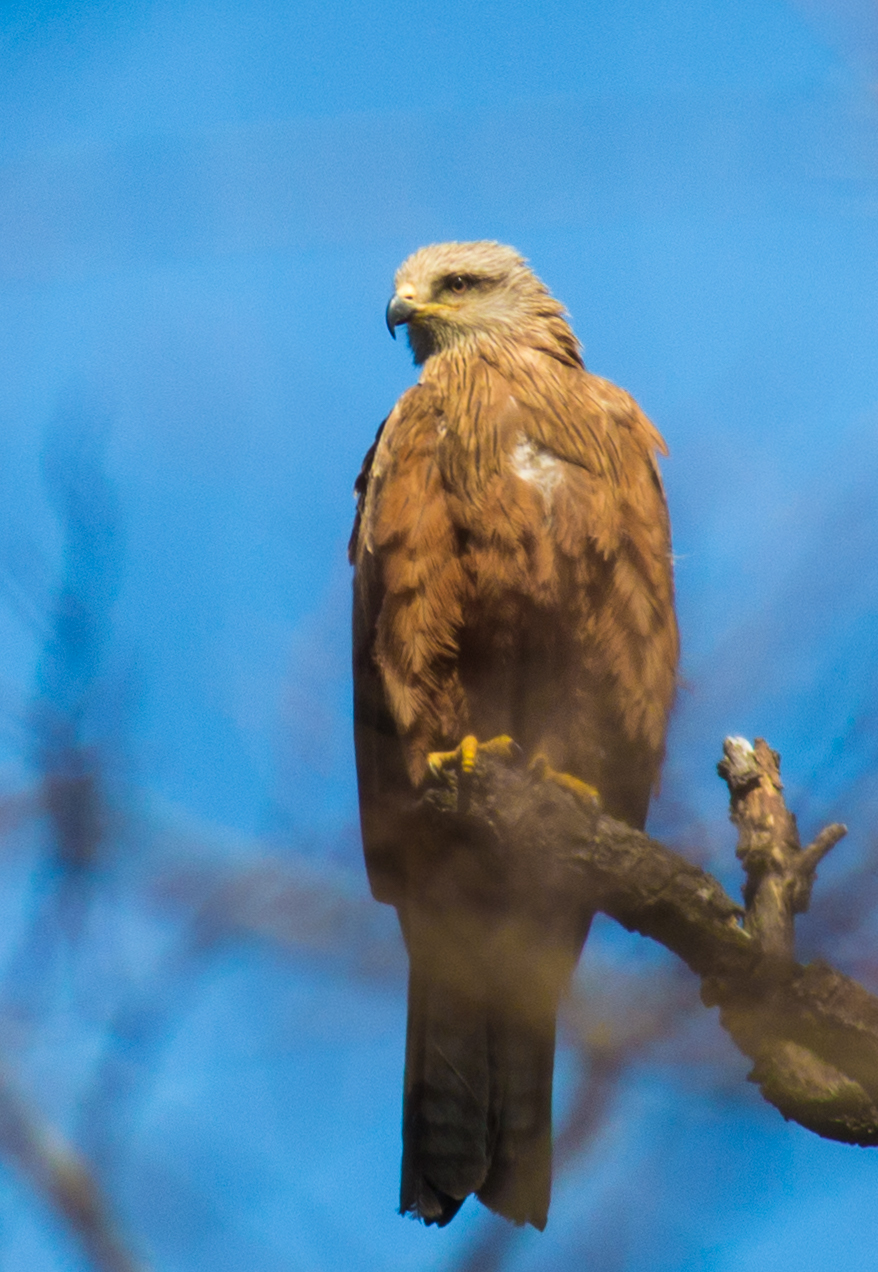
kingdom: Animalia
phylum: Chordata
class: Aves
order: Accipitriformes
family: Accipitridae
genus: Milvus
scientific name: Milvus migrans
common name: Black kite
